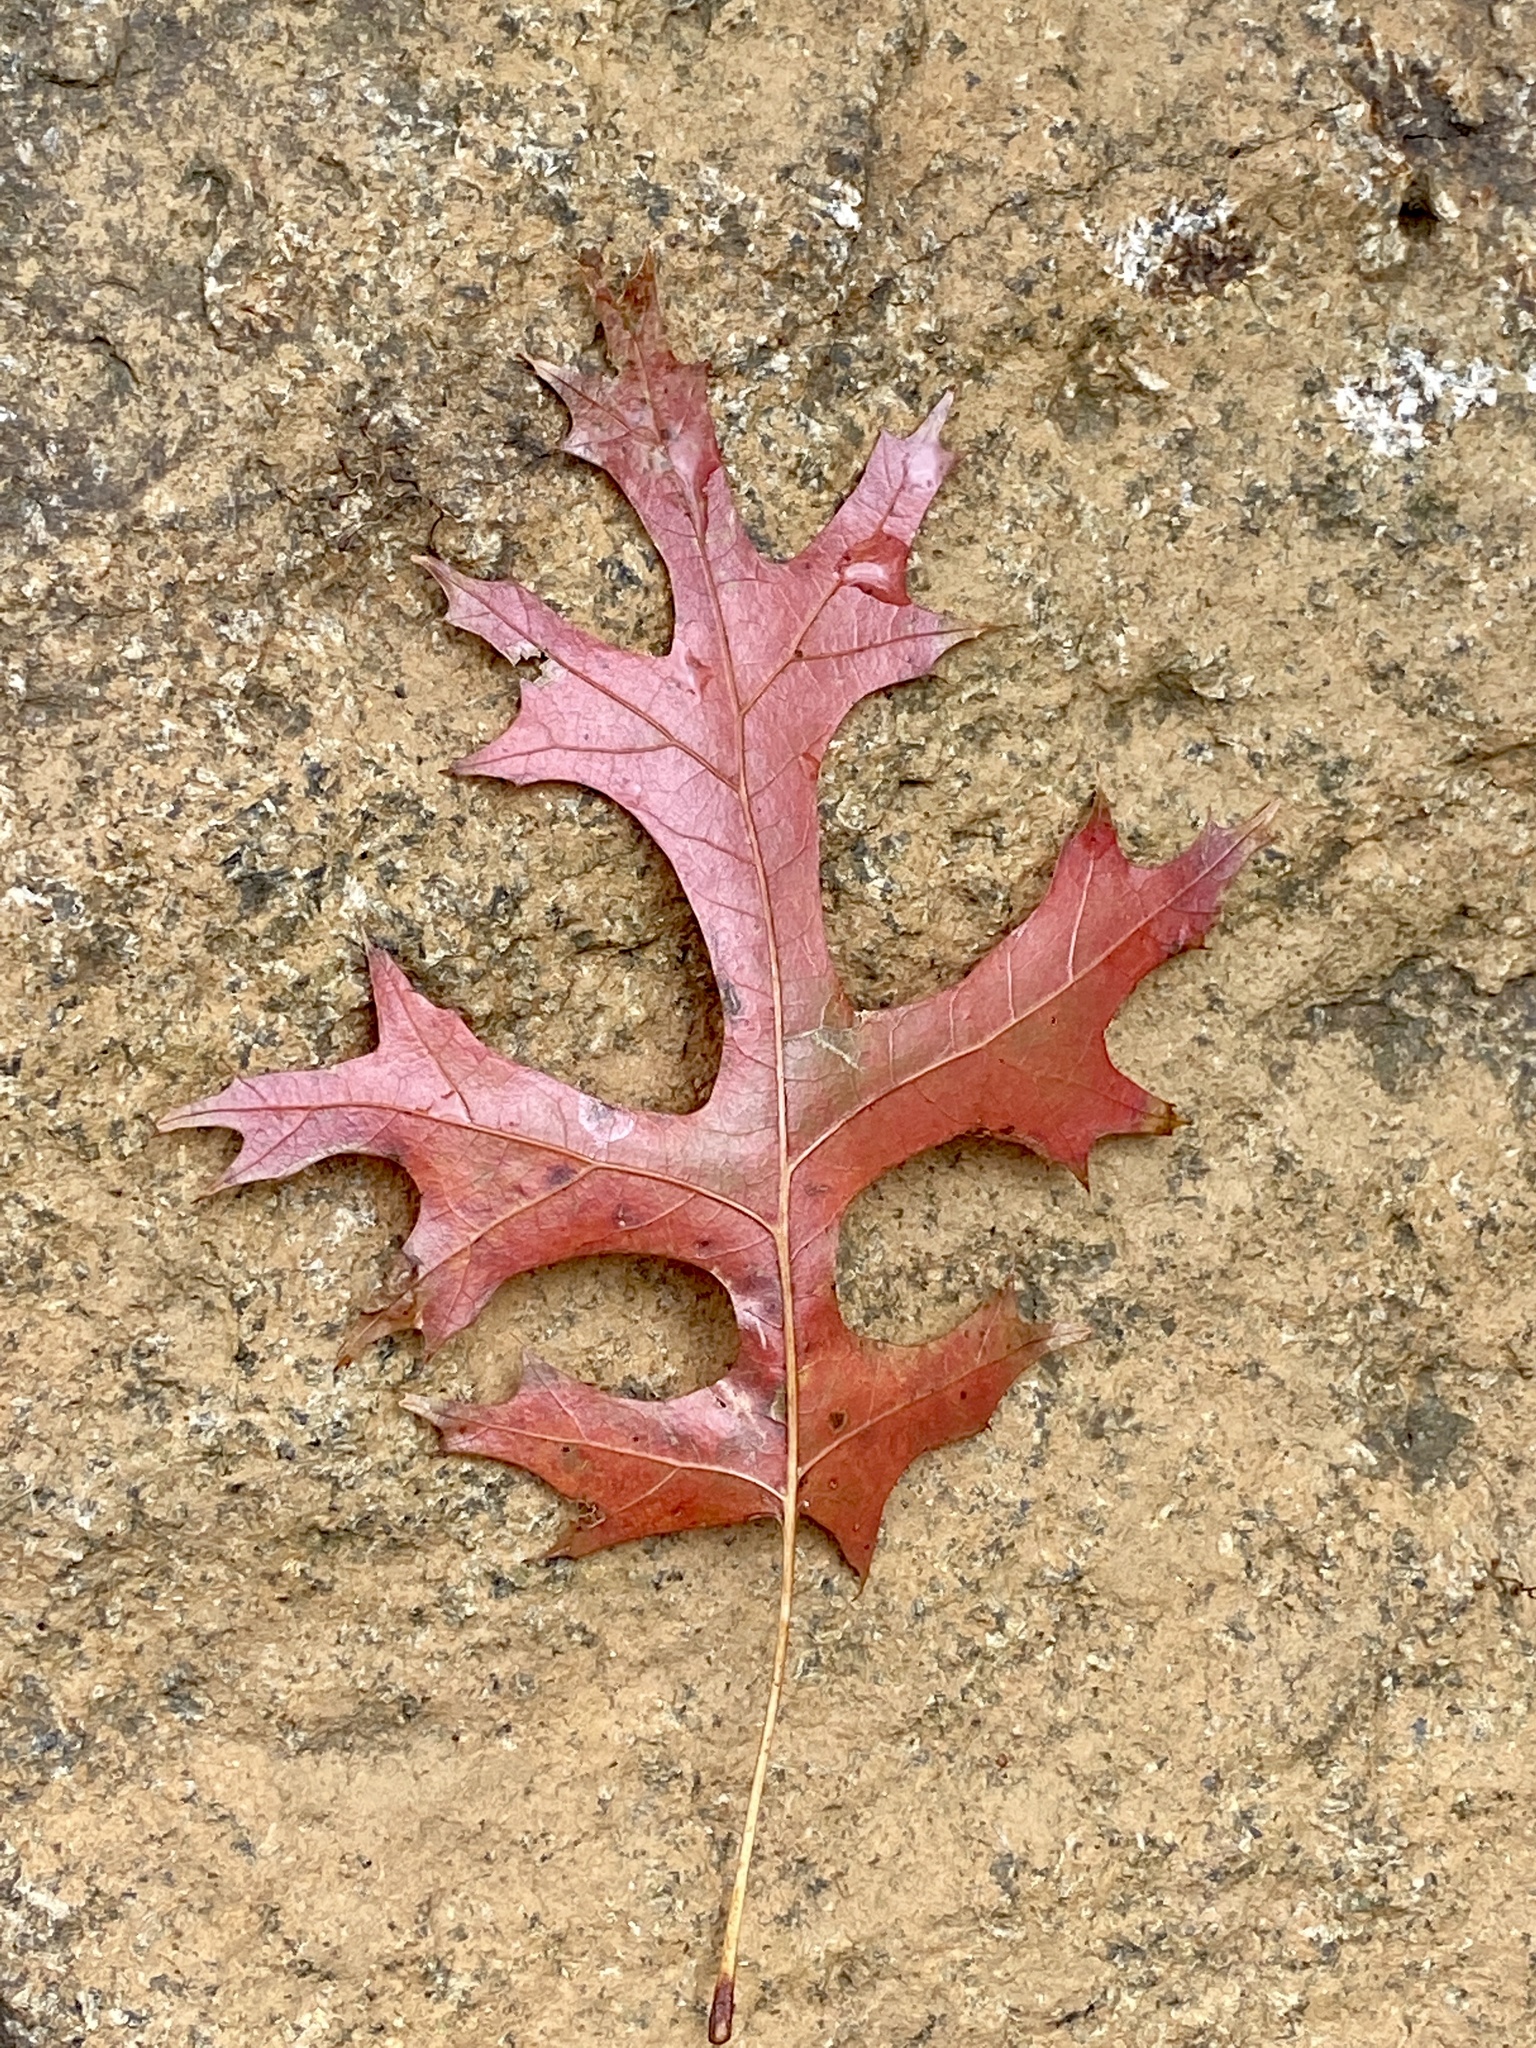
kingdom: Plantae
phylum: Tracheophyta
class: Magnoliopsida
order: Fagales
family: Fagaceae
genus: Quercus
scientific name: Quercus coccinea
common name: Scarlet oak
